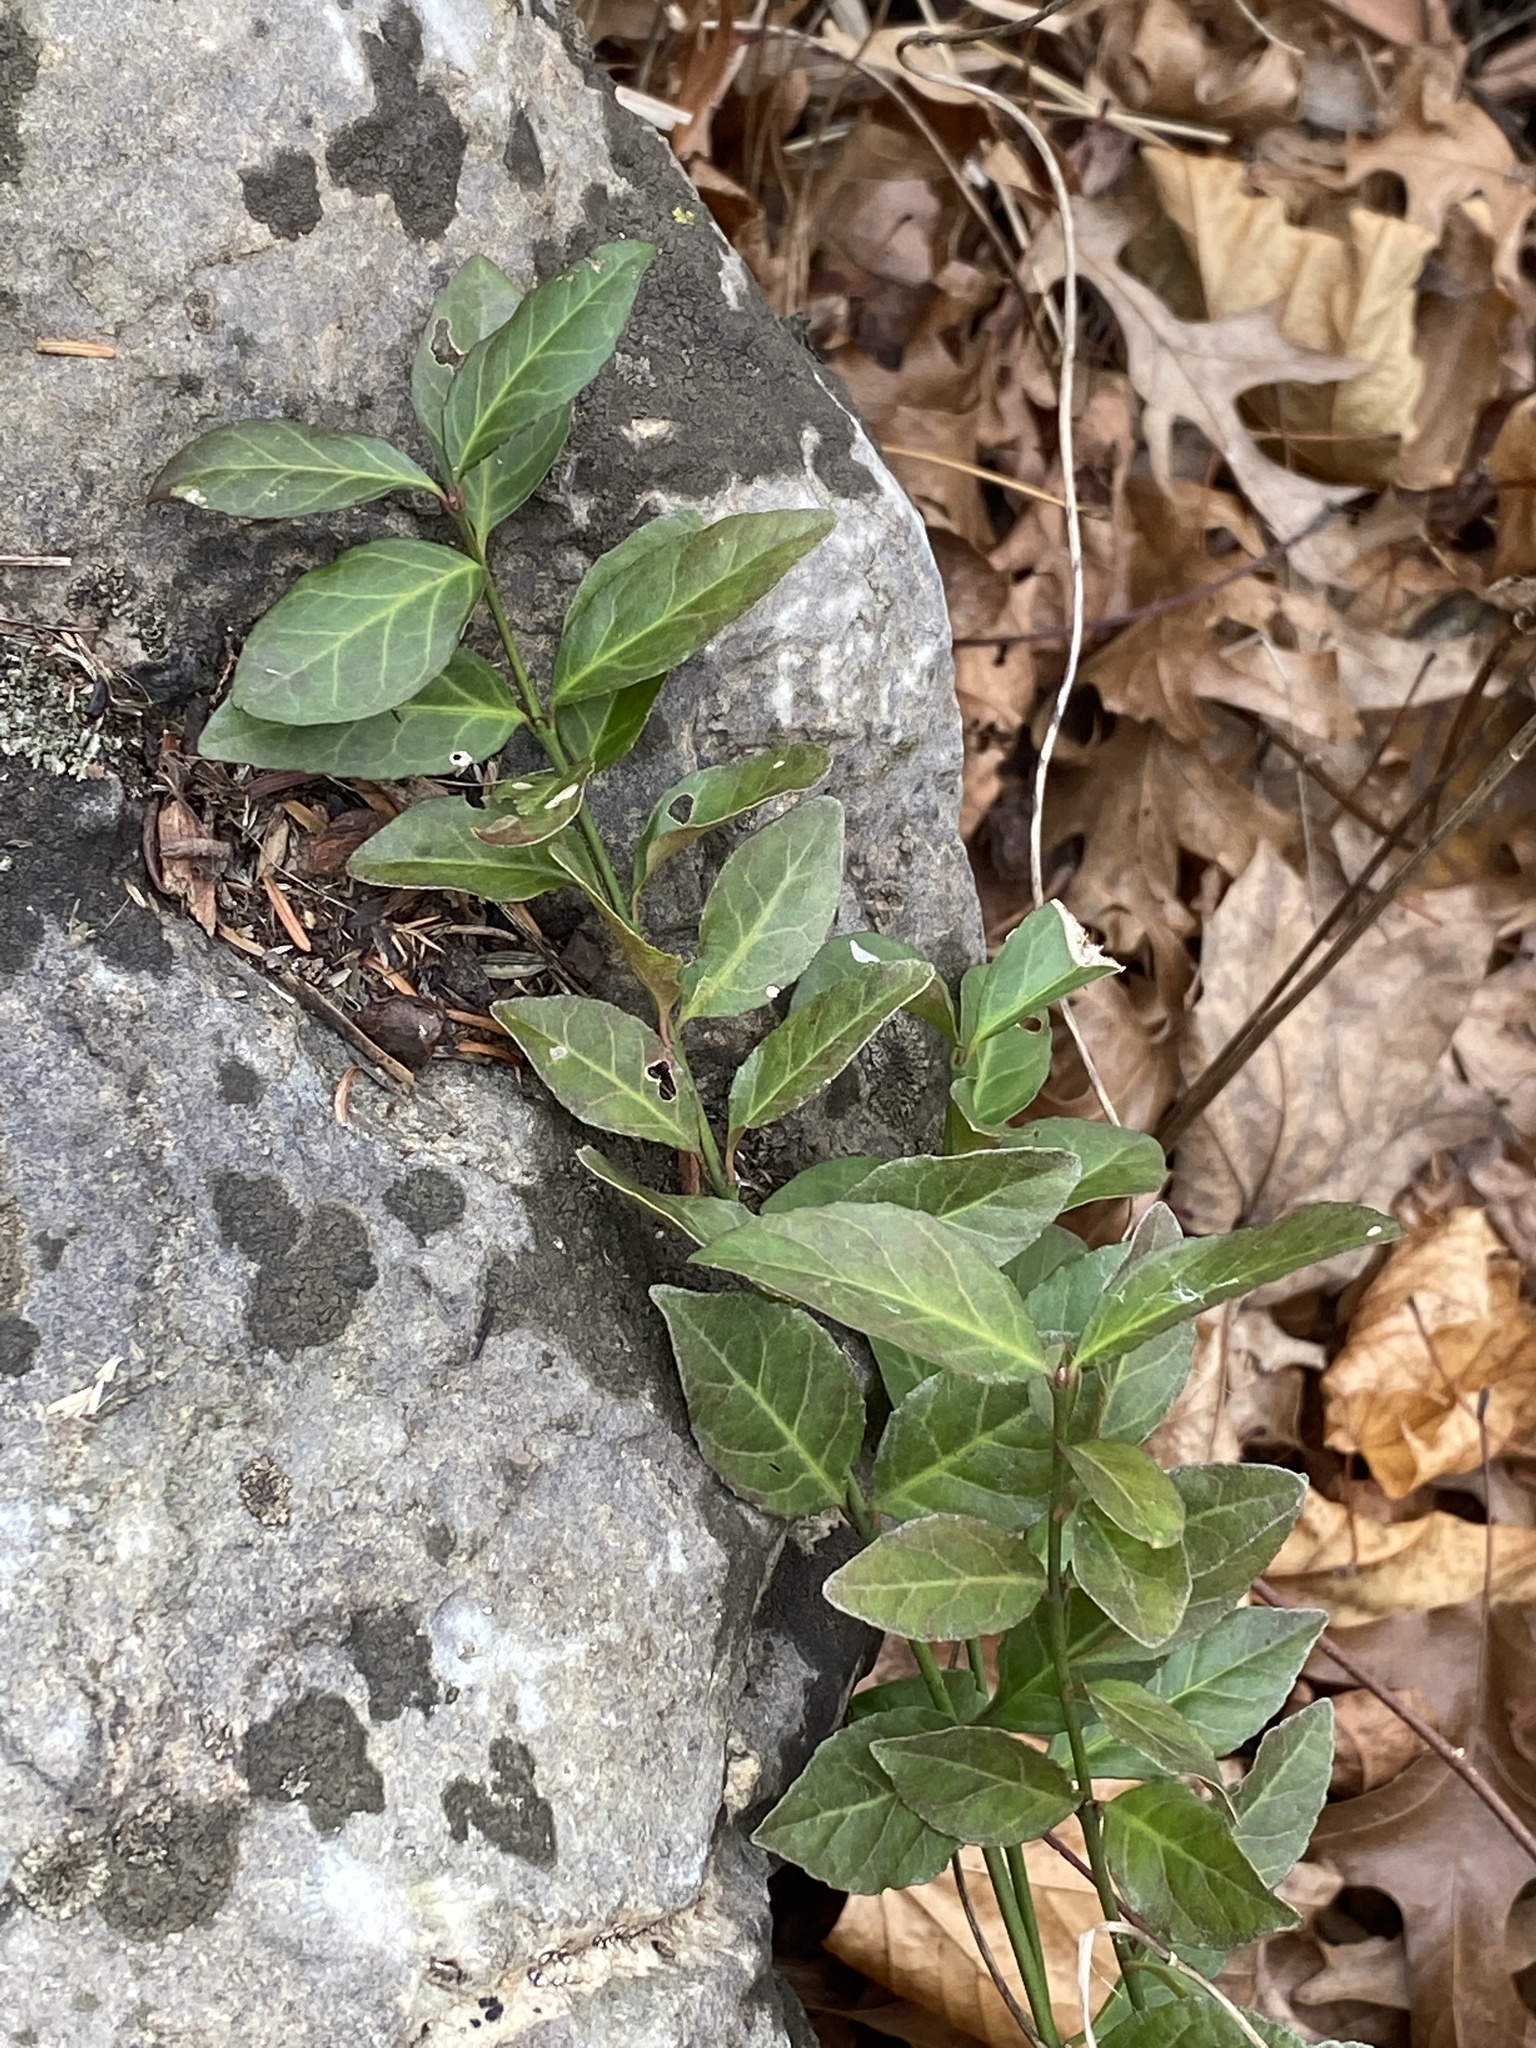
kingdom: Plantae
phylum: Tracheophyta
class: Magnoliopsida
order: Celastrales
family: Celastraceae
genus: Euonymus
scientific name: Euonymus fortunei
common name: Climbing euonymus
